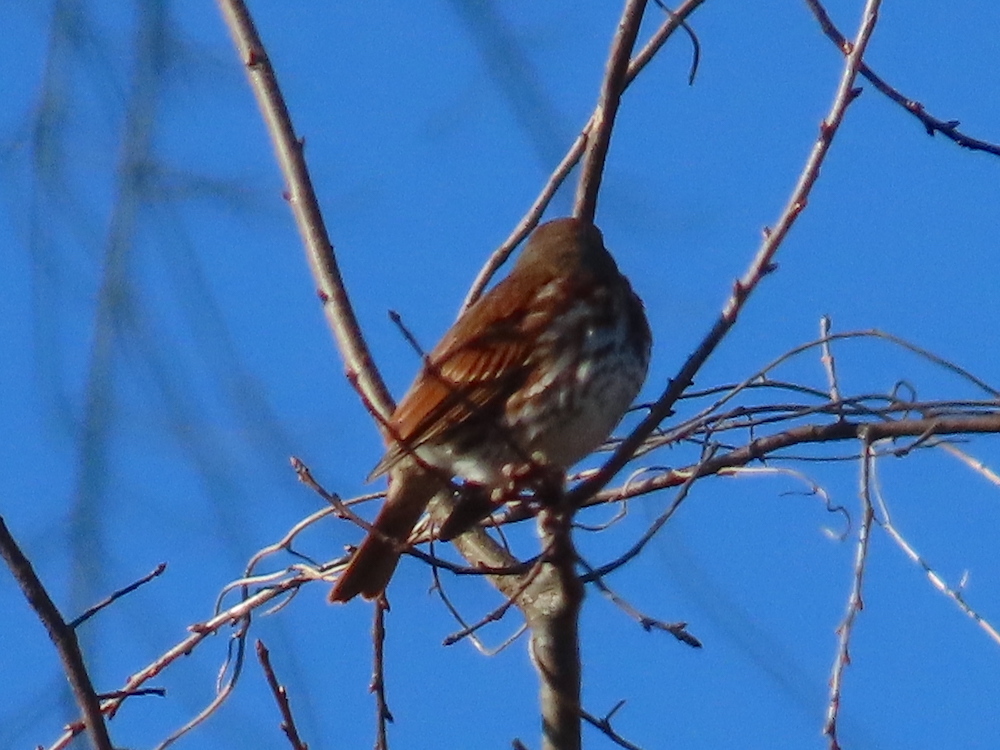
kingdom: Animalia
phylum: Chordata
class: Aves
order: Passeriformes
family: Passerellidae
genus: Passerella
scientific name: Passerella iliaca
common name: Fox sparrow
